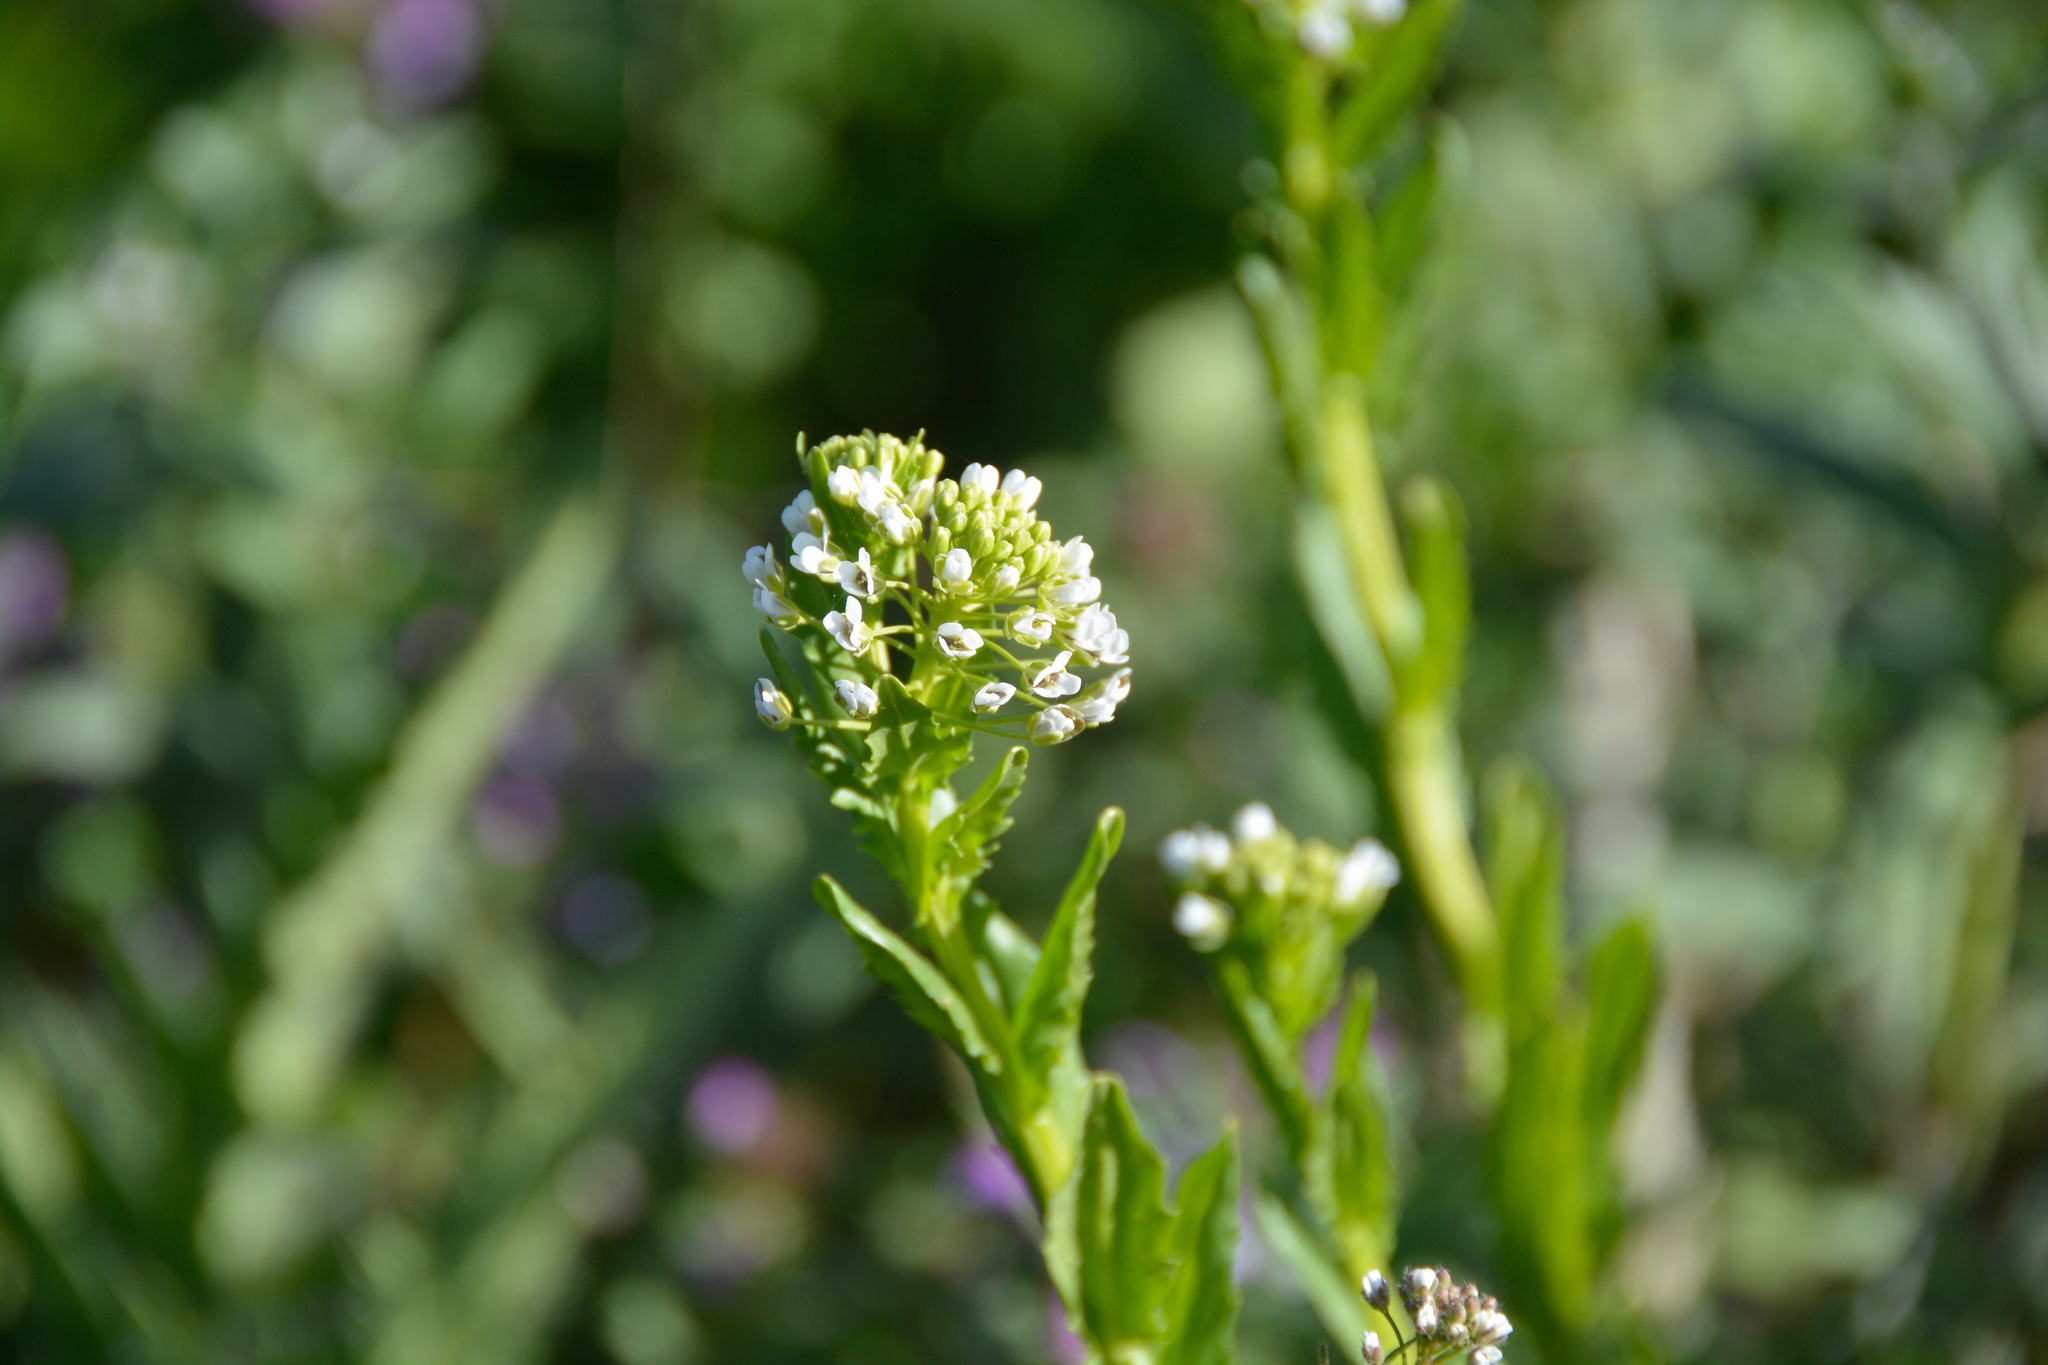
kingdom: Plantae
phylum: Tracheophyta
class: Magnoliopsida
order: Brassicales
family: Brassicaceae
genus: Thlaspi
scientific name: Thlaspi arvense
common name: Field pennycress
